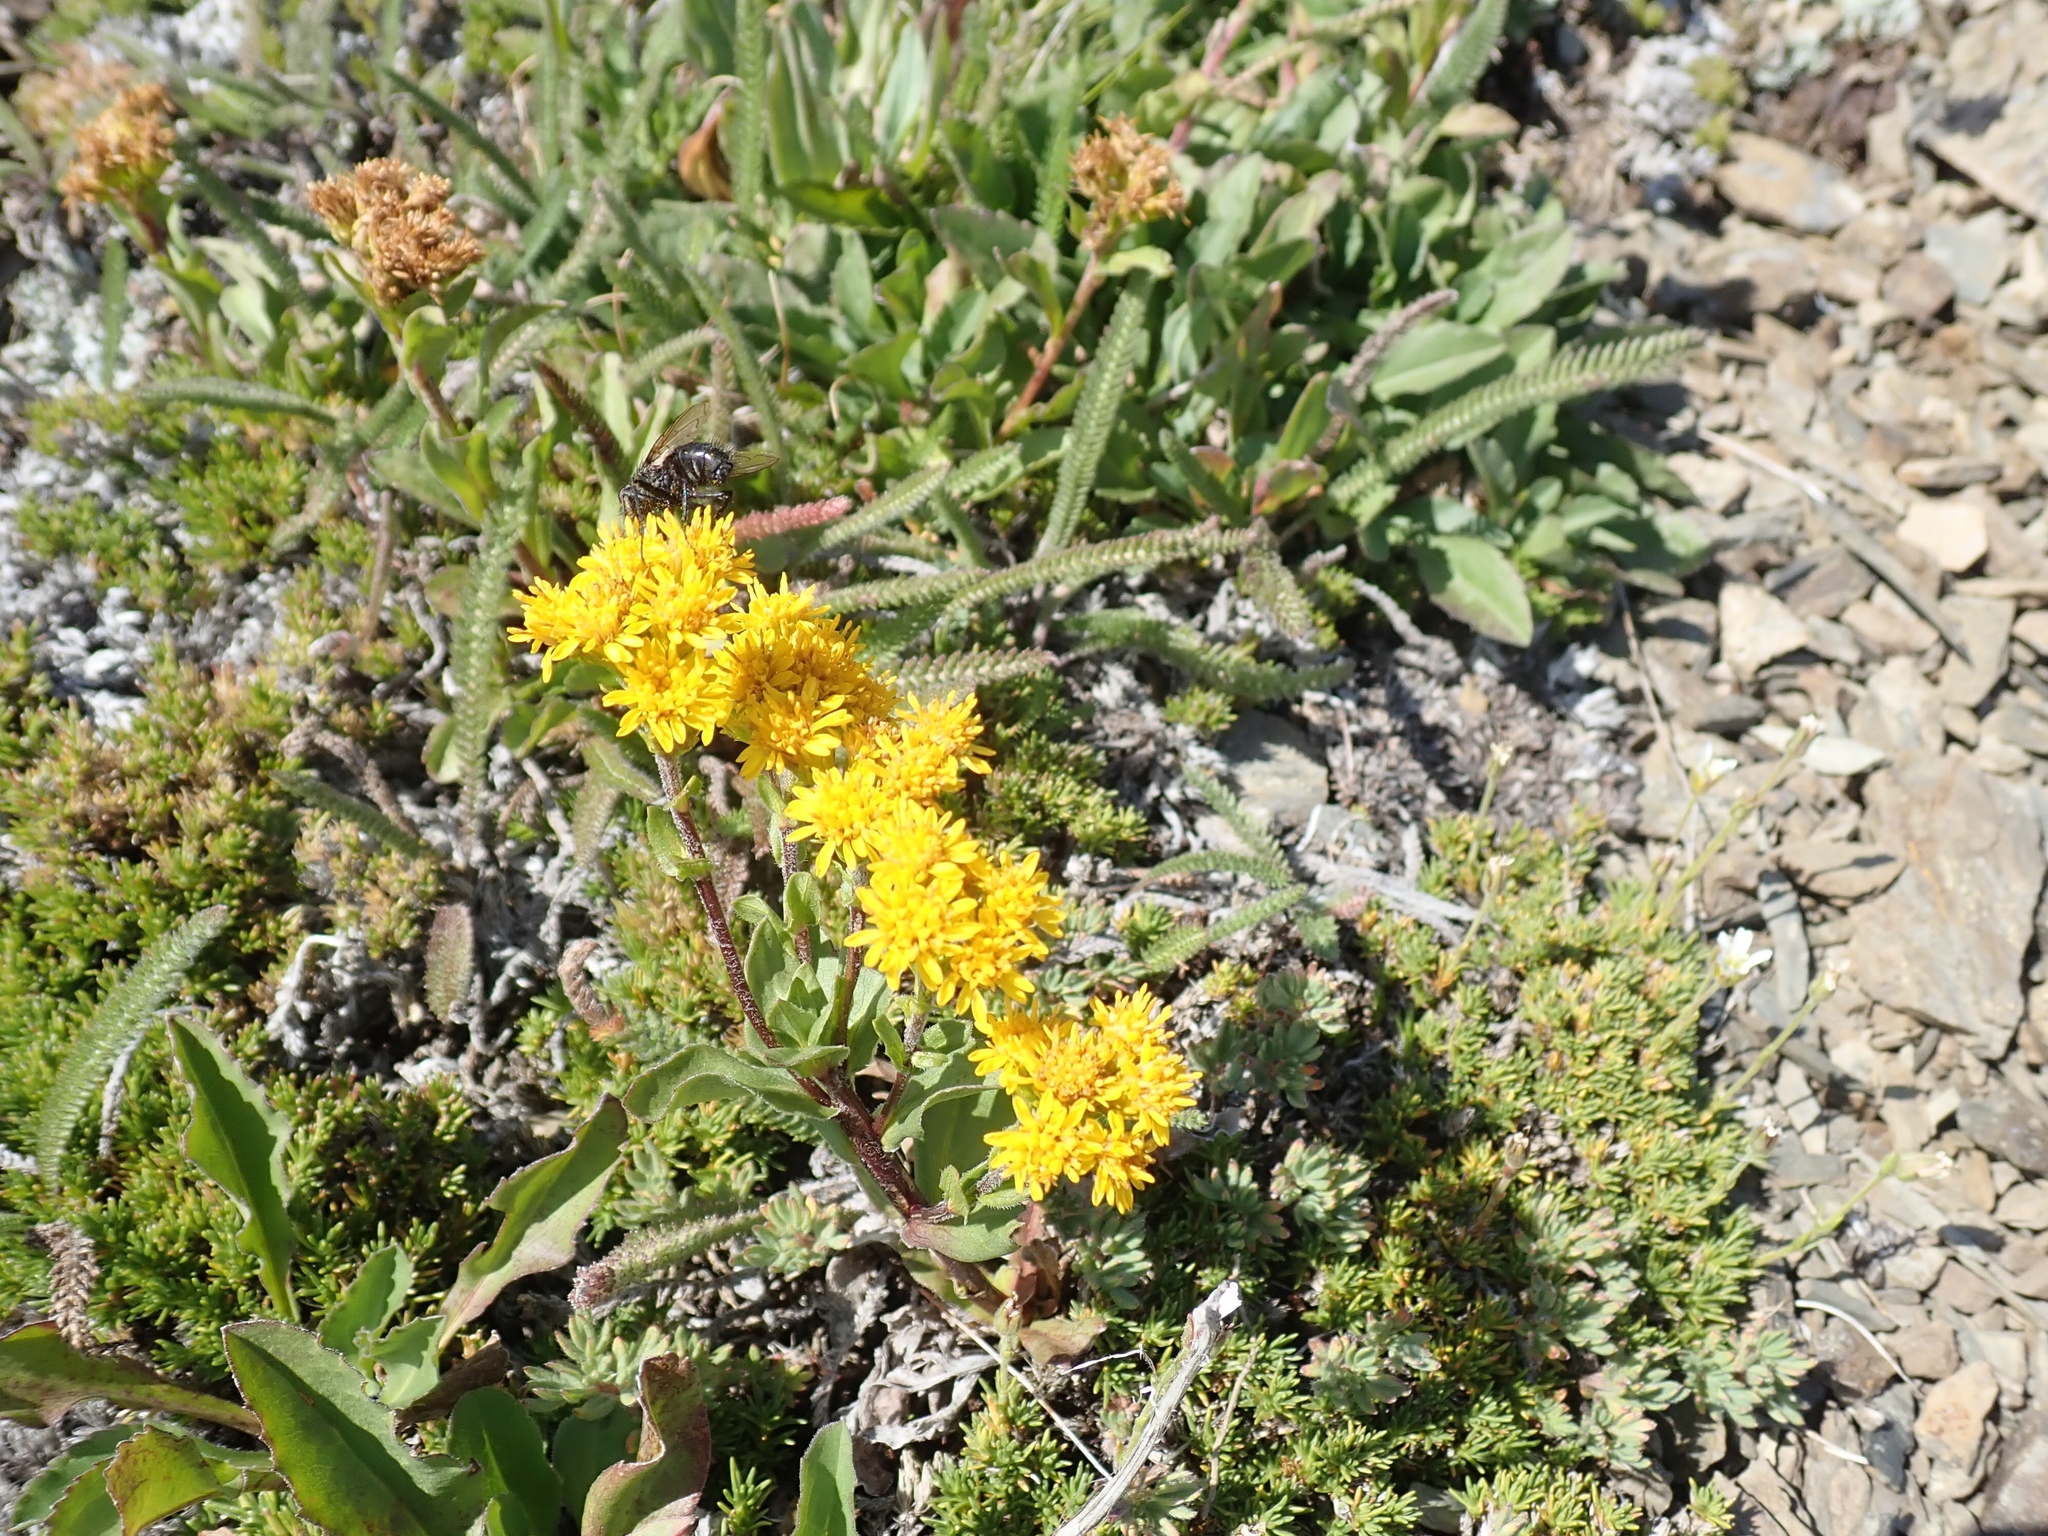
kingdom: Plantae
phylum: Tracheophyta
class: Magnoliopsida
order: Asterales
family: Asteraceae
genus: Solidago
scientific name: Solidago multiradiata
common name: Northern goldenrod
